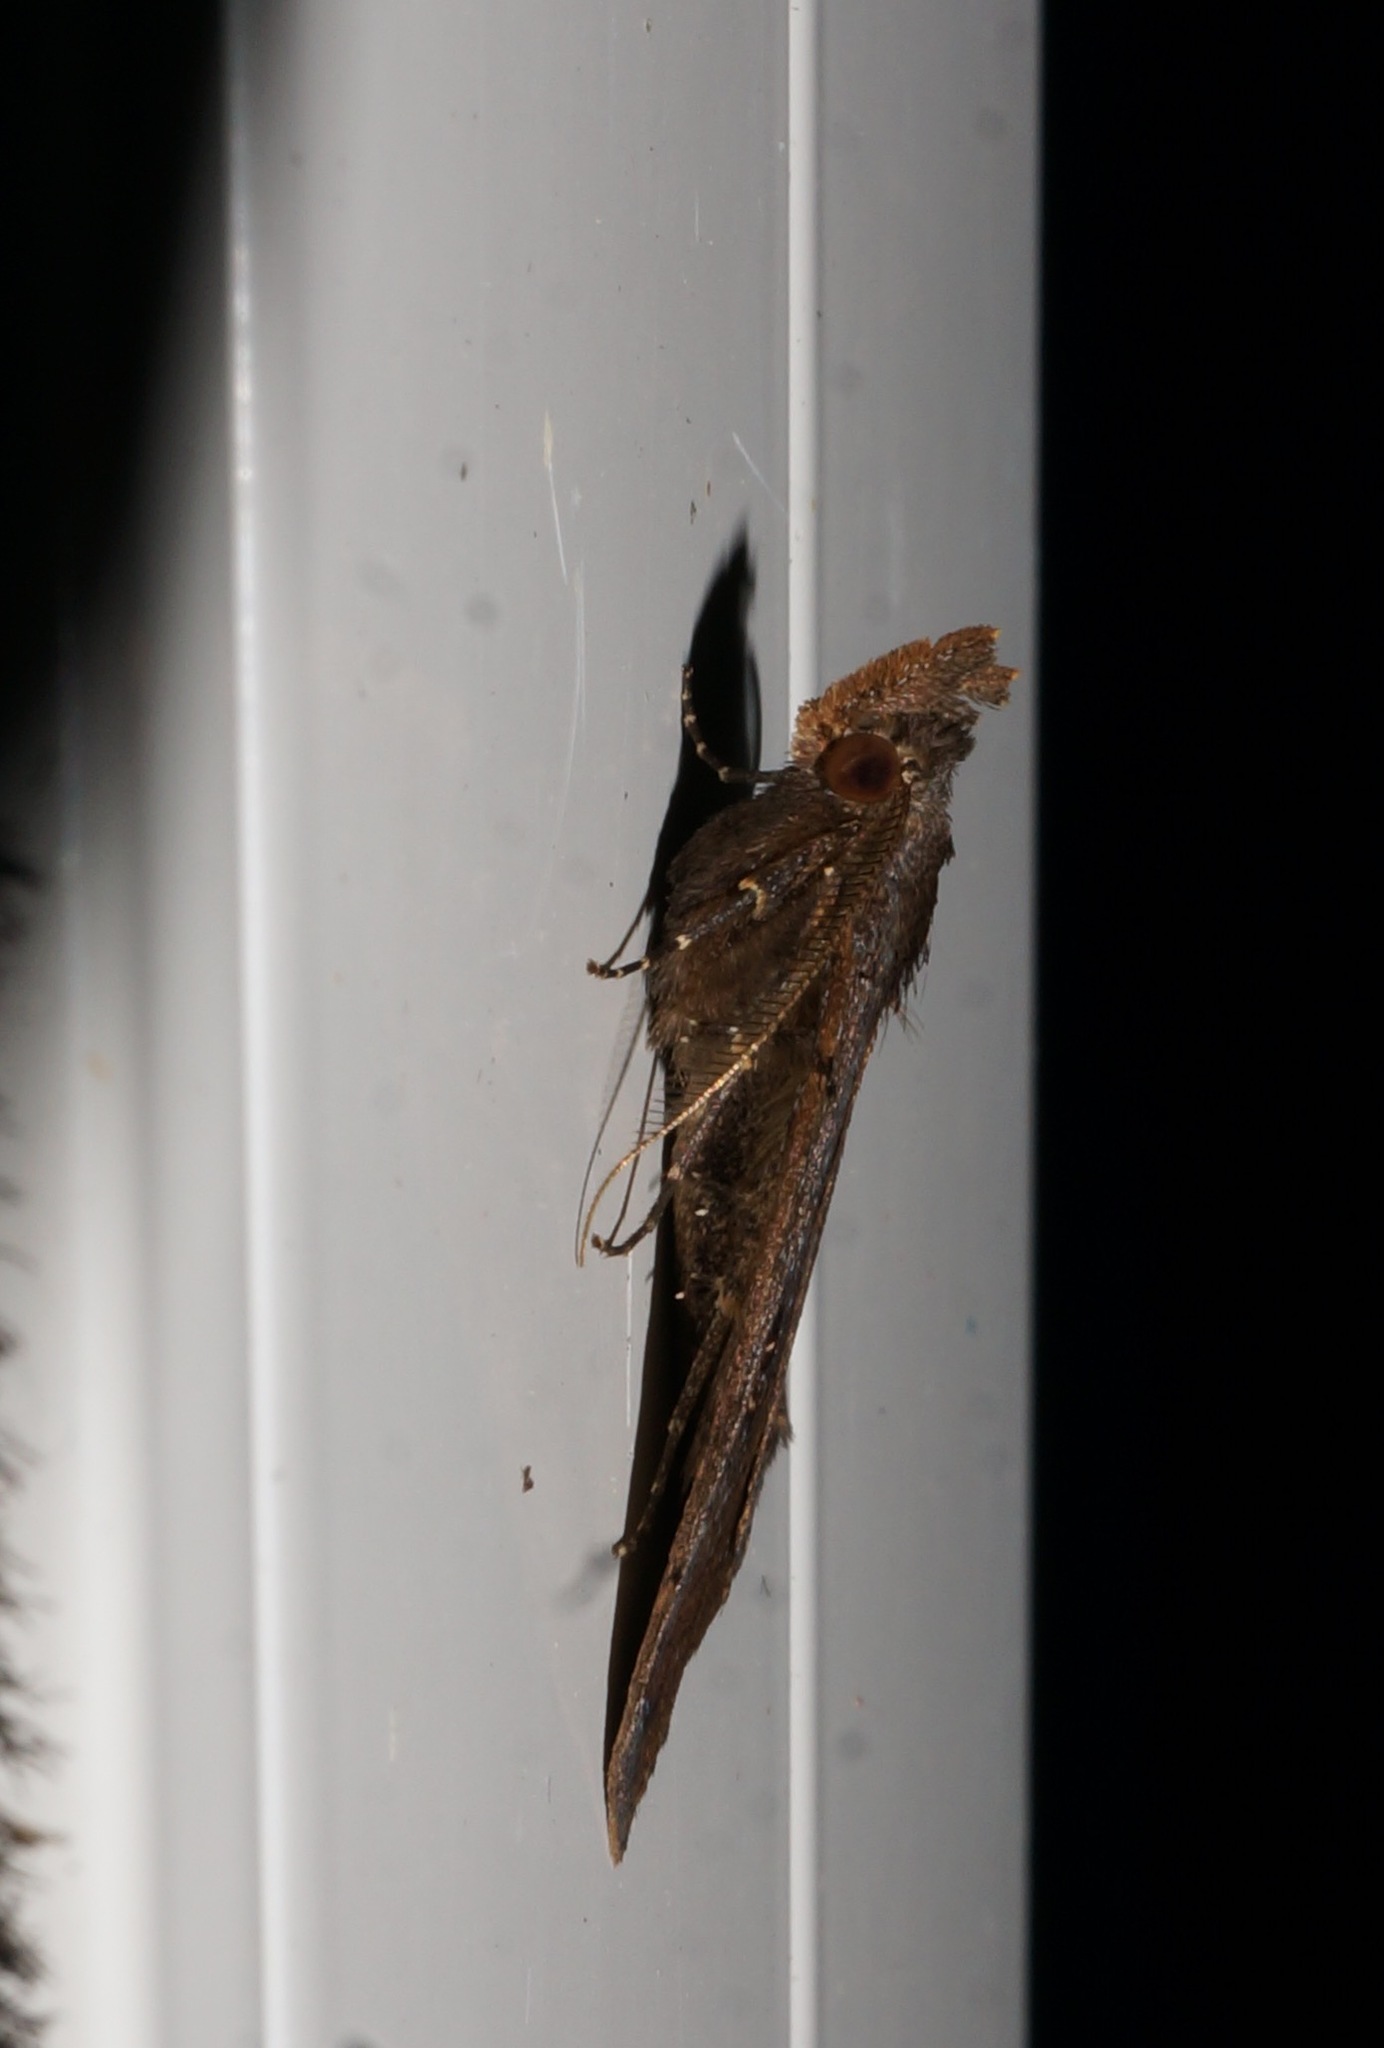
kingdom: Animalia
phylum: Arthropoda
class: Insecta
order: Lepidoptera
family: Erebidae
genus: Rhapsa
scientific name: Rhapsa scotosialis
